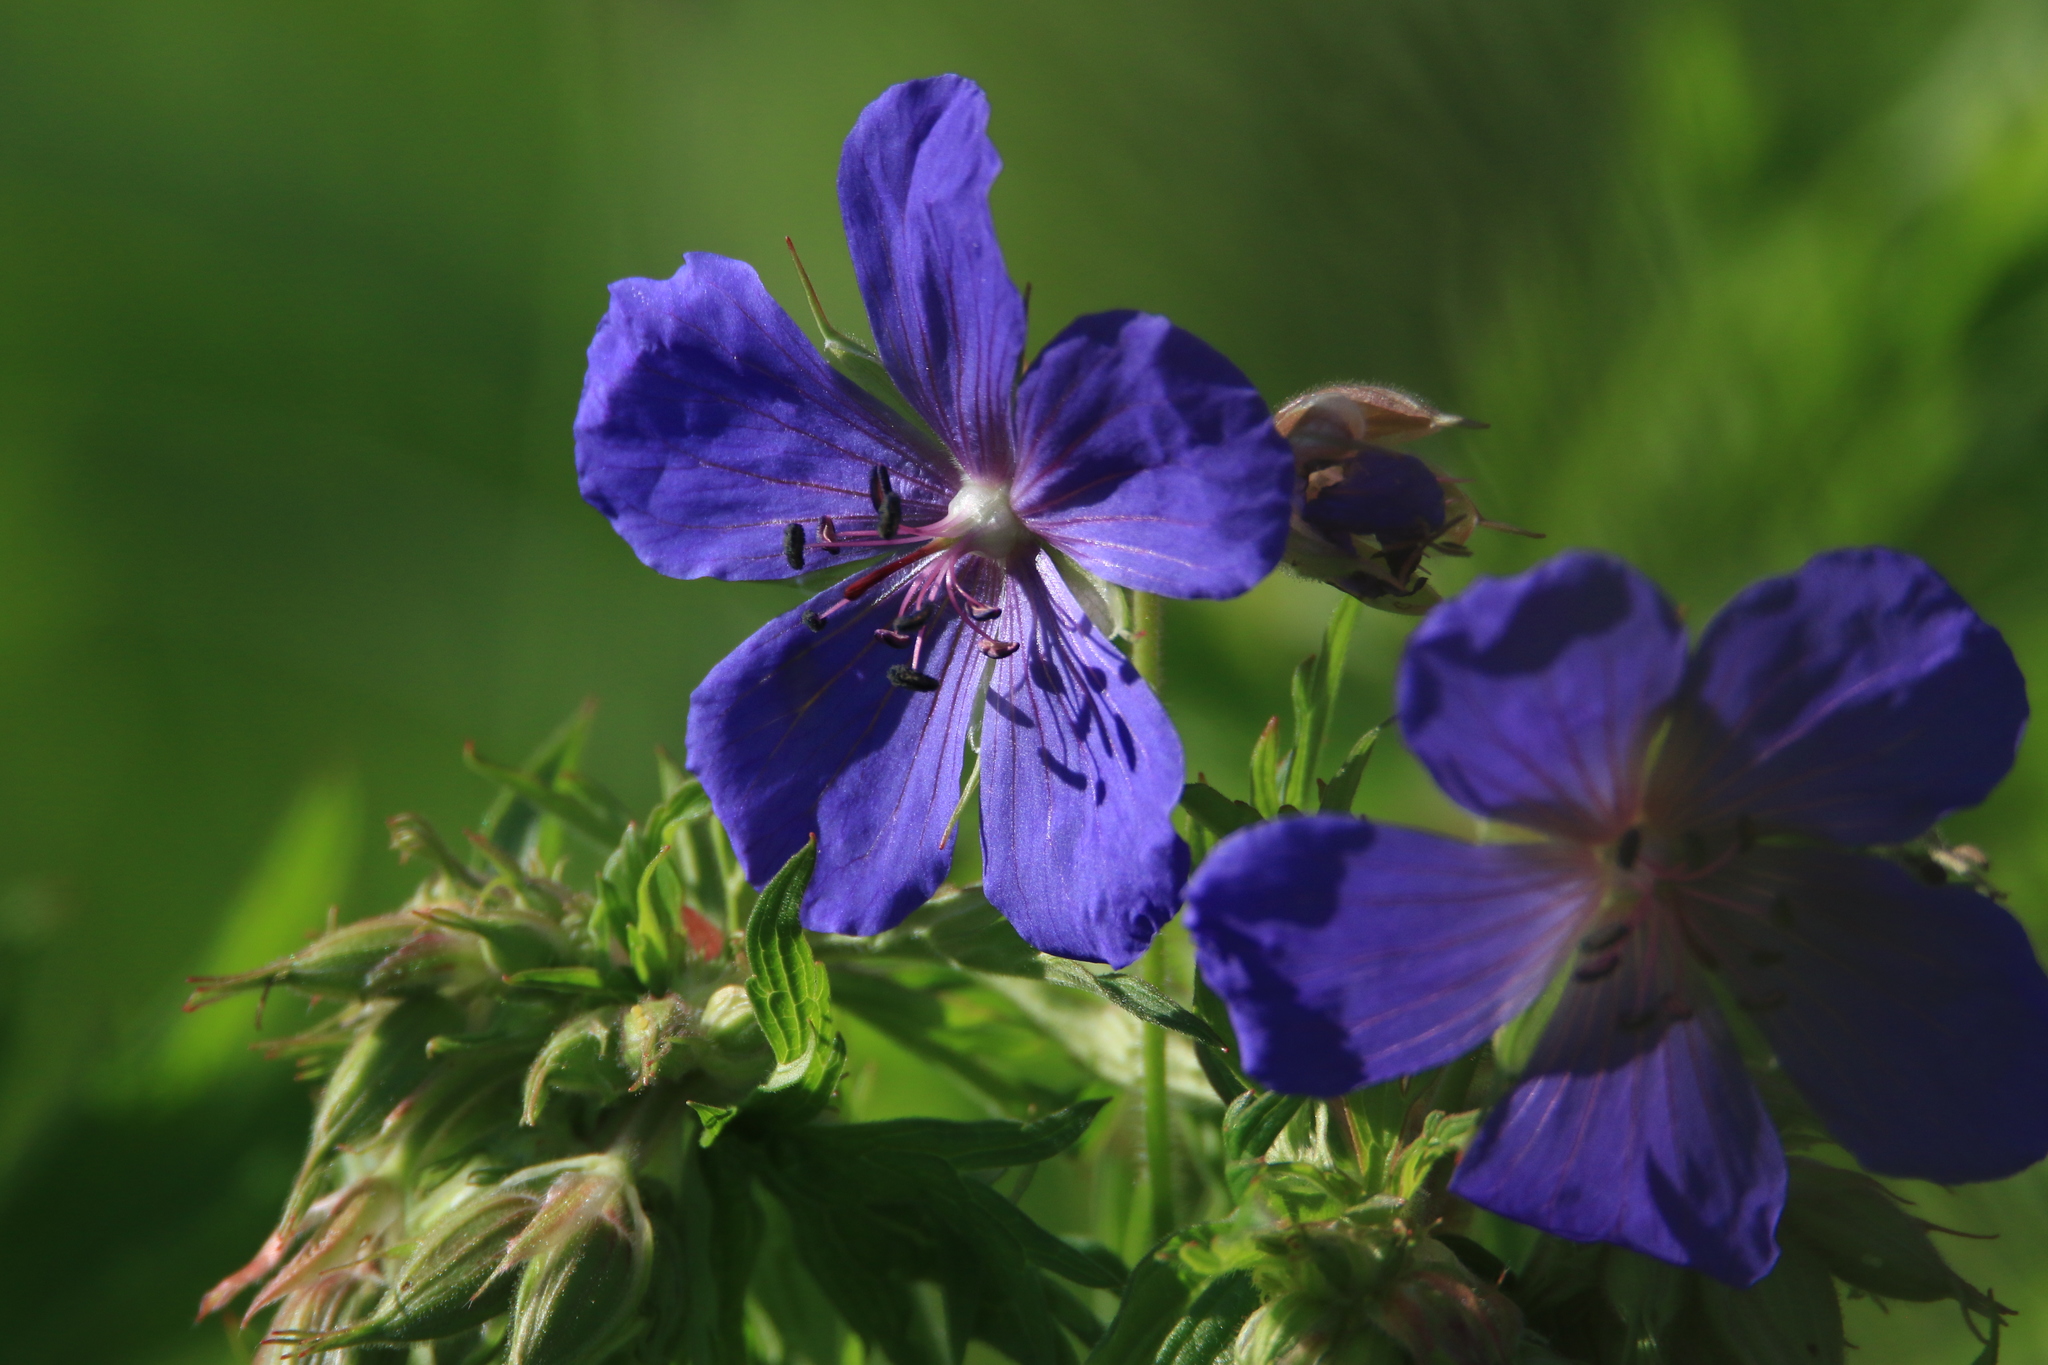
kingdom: Plantae
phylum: Tracheophyta
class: Magnoliopsida
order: Geraniales
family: Geraniaceae
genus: Geranium
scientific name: Geranium pratense
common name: Meadow crane's-bill
